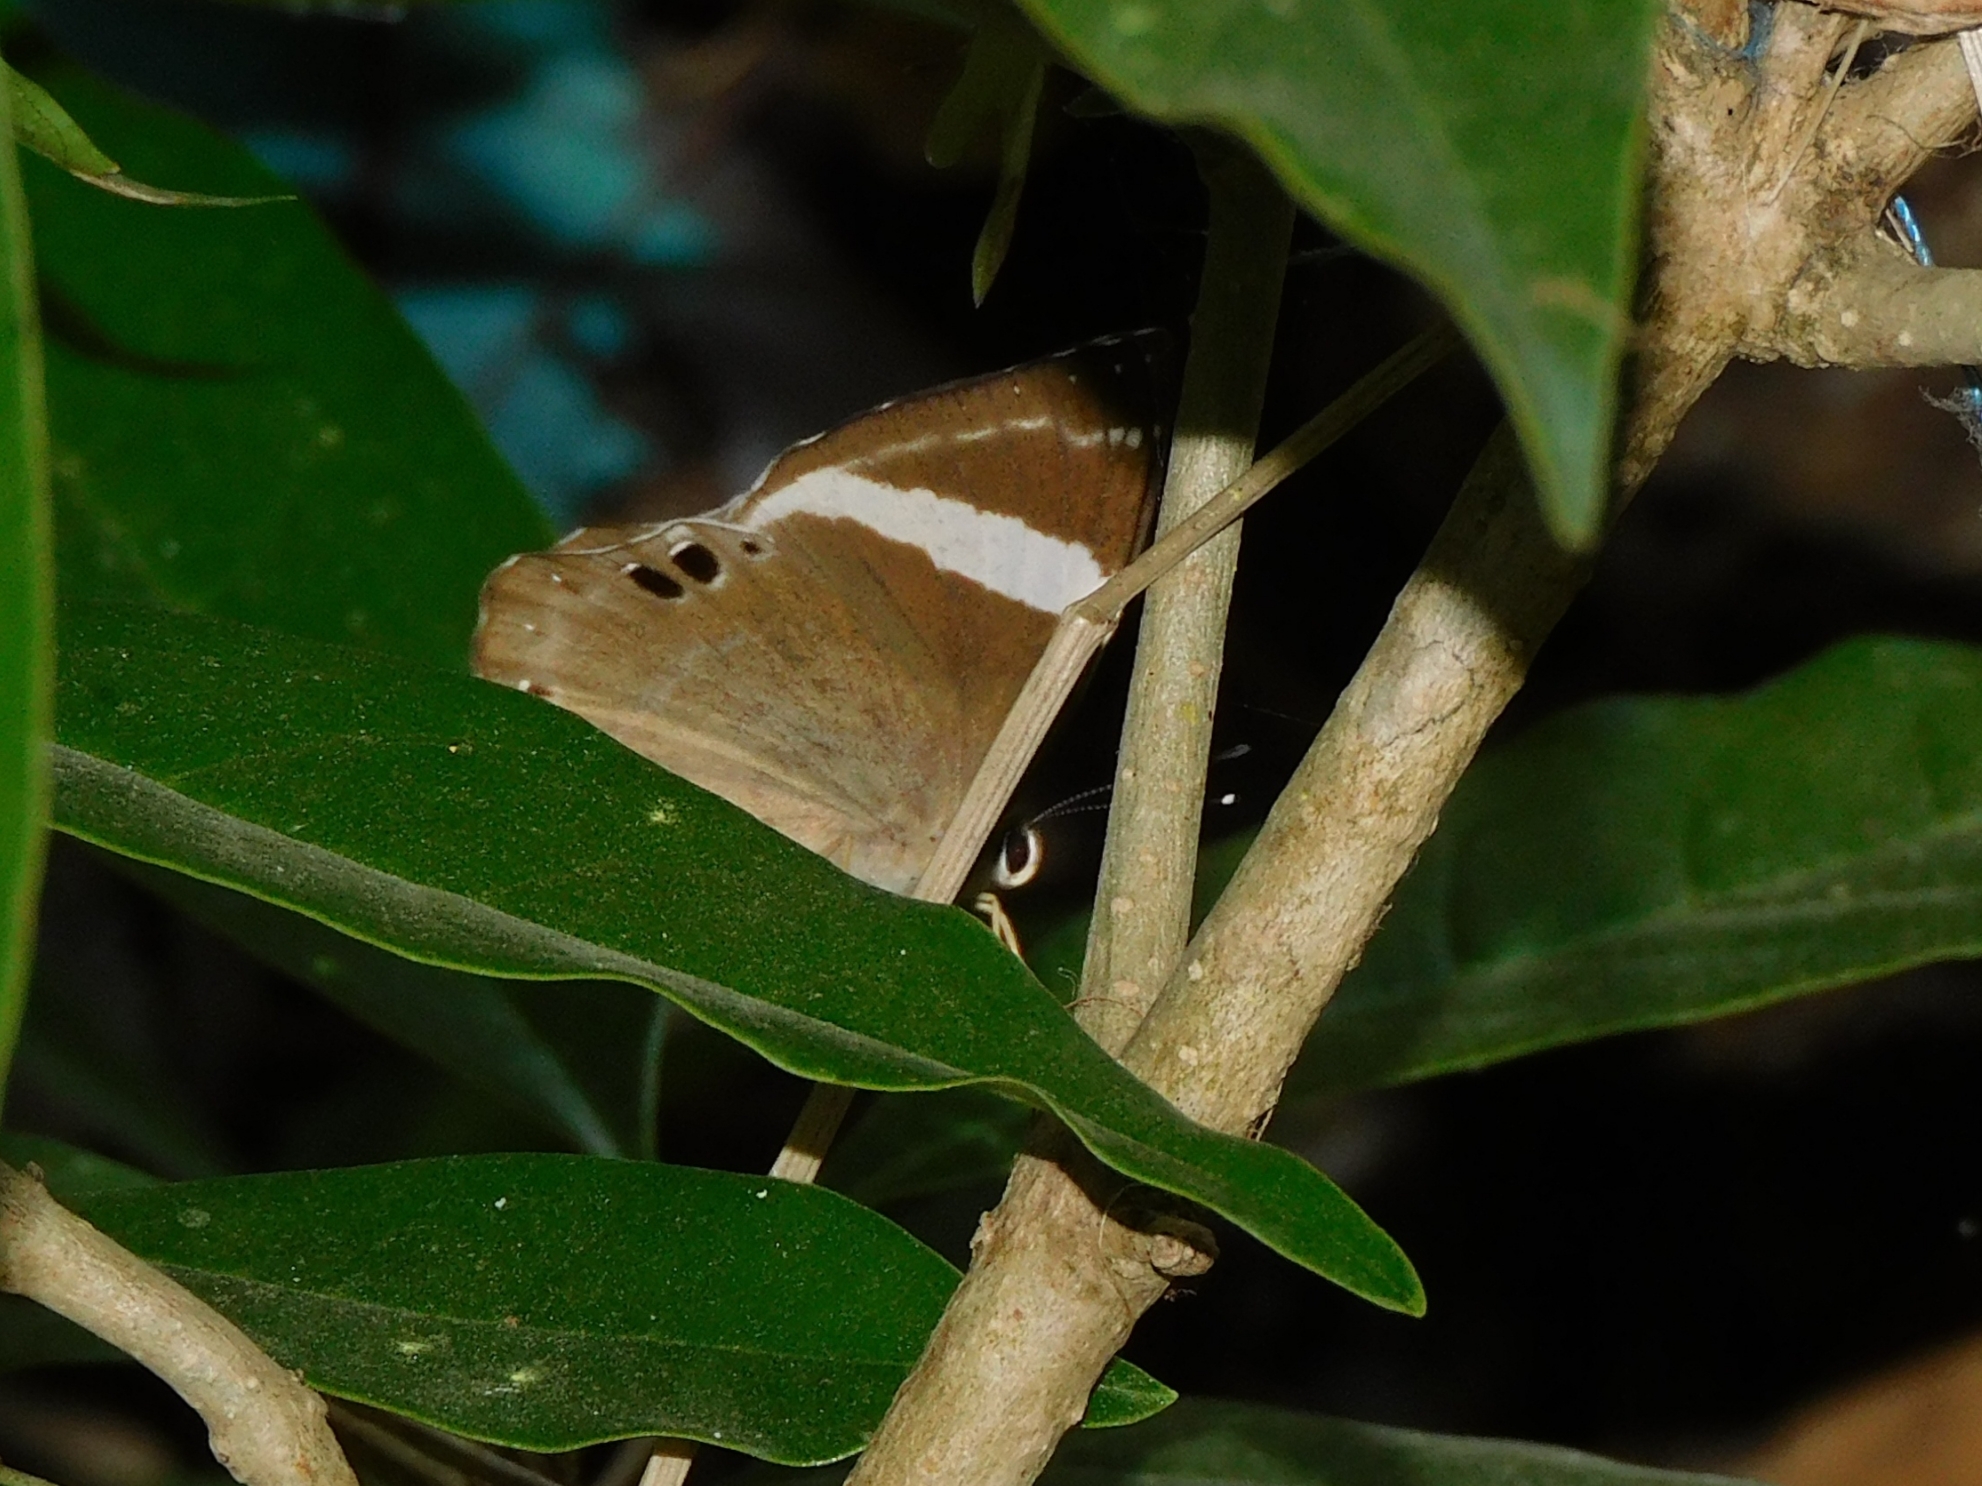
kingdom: Animalia
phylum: Arthropoda
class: Insecta
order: Lepidoptera
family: Lycaenidae
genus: Abisara
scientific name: Abisara fylla
